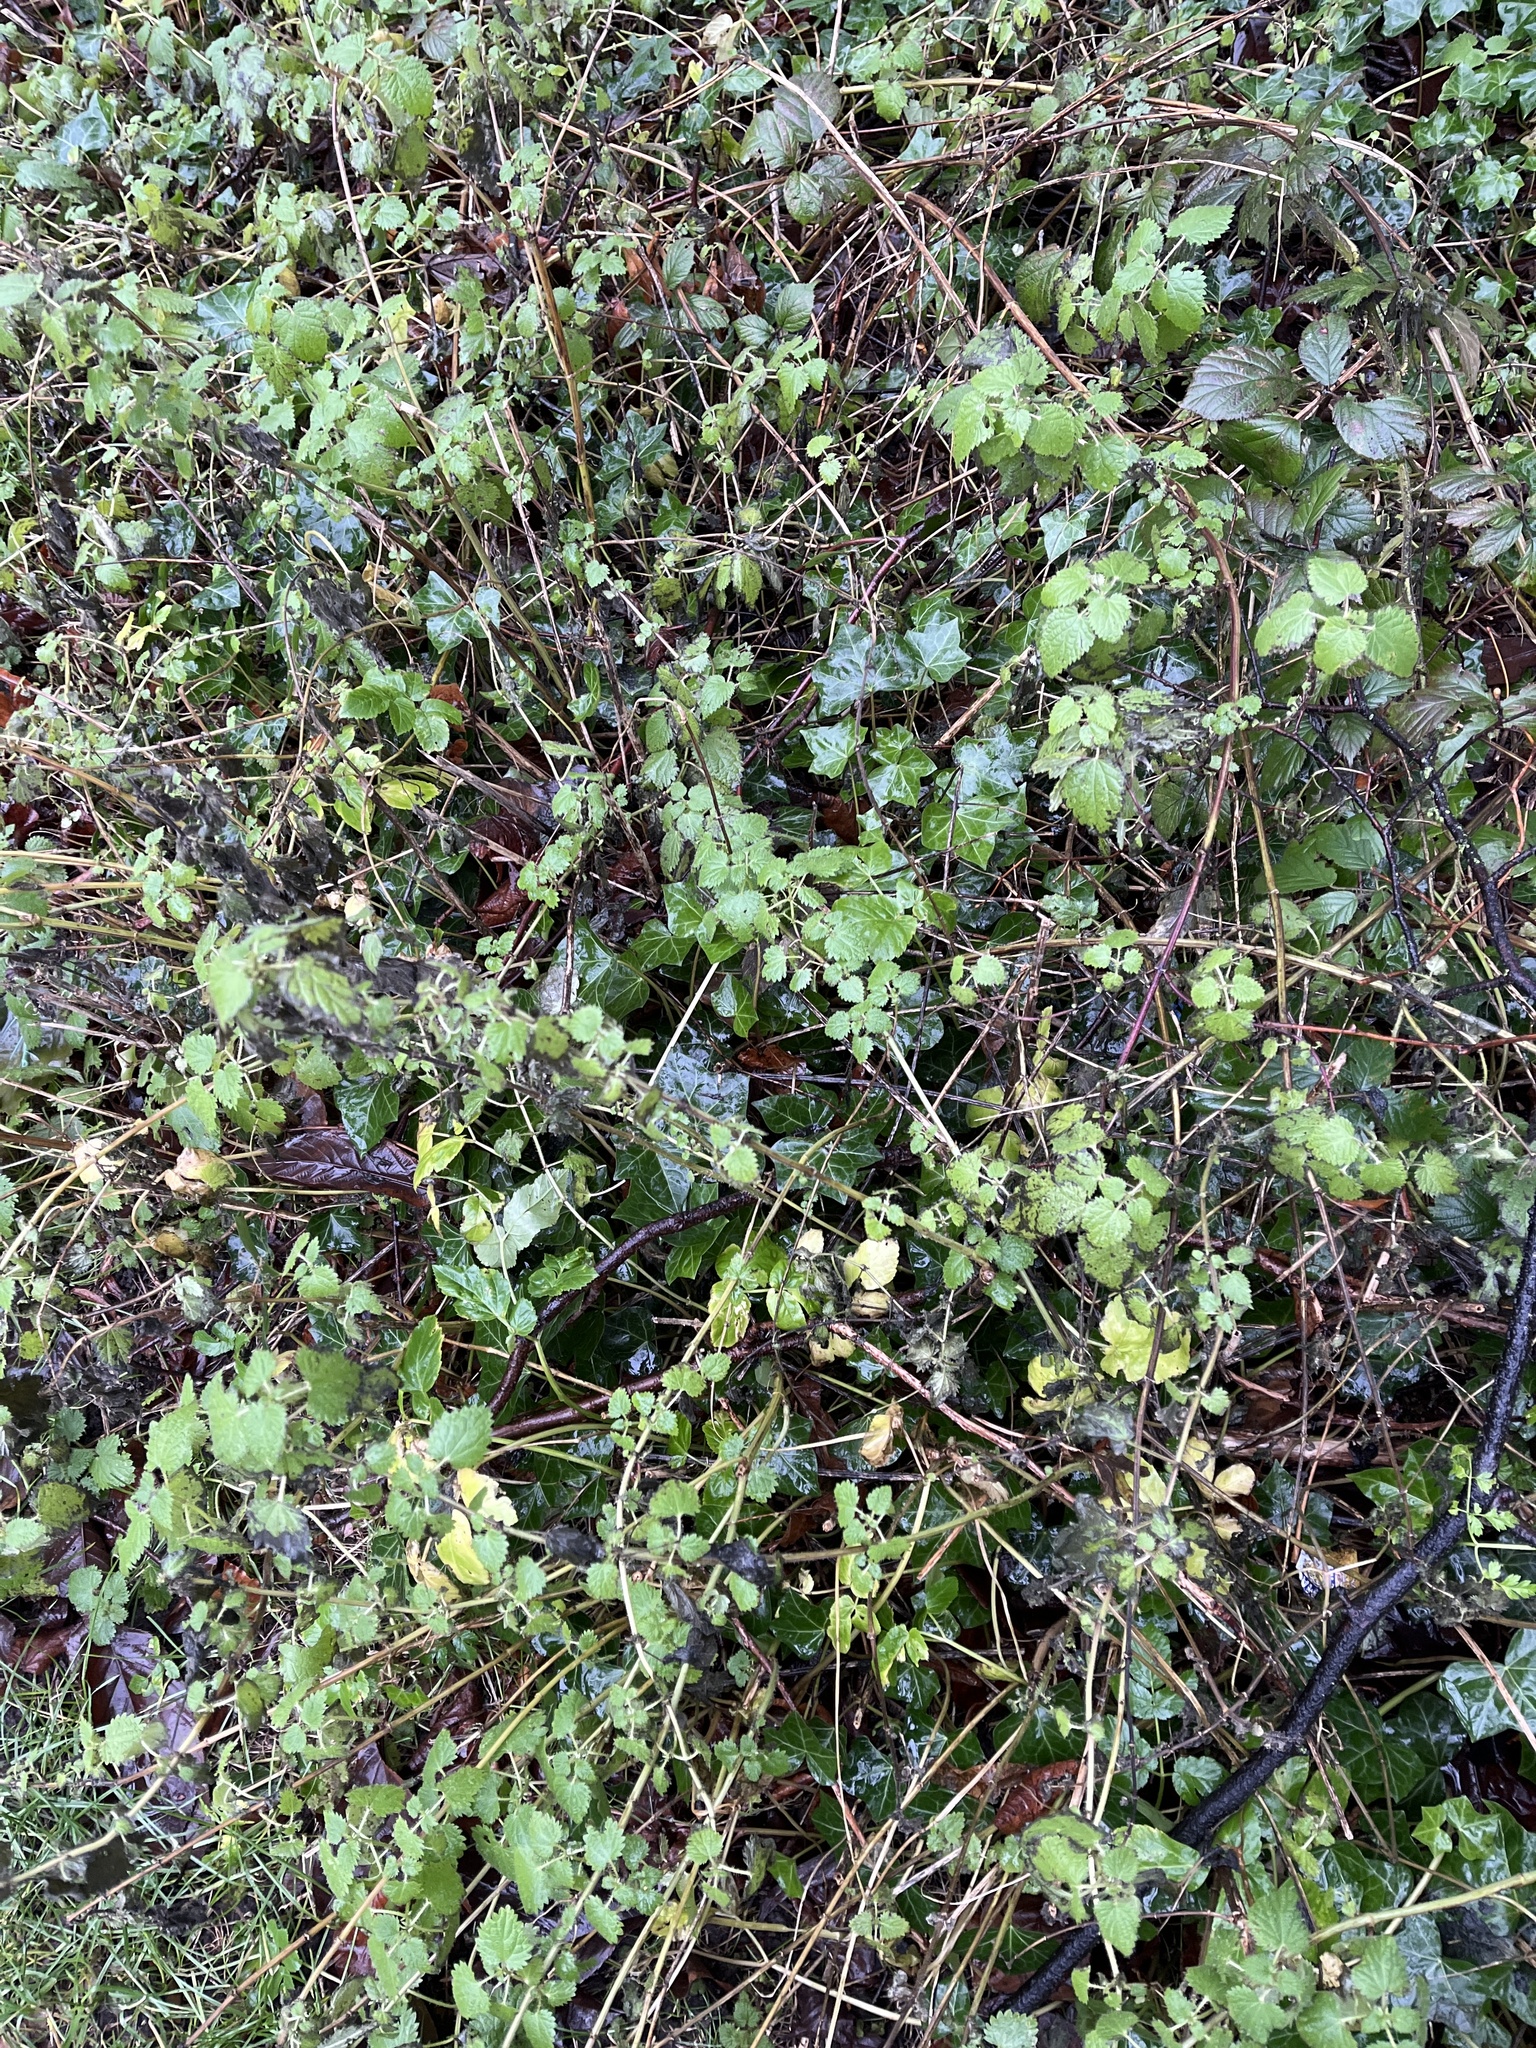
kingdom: Plantae
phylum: Tracheophyta
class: Magnoliopsida
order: Rosales
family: Urticaceae
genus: Urtica
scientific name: Urtica dioica
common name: Common nettle
